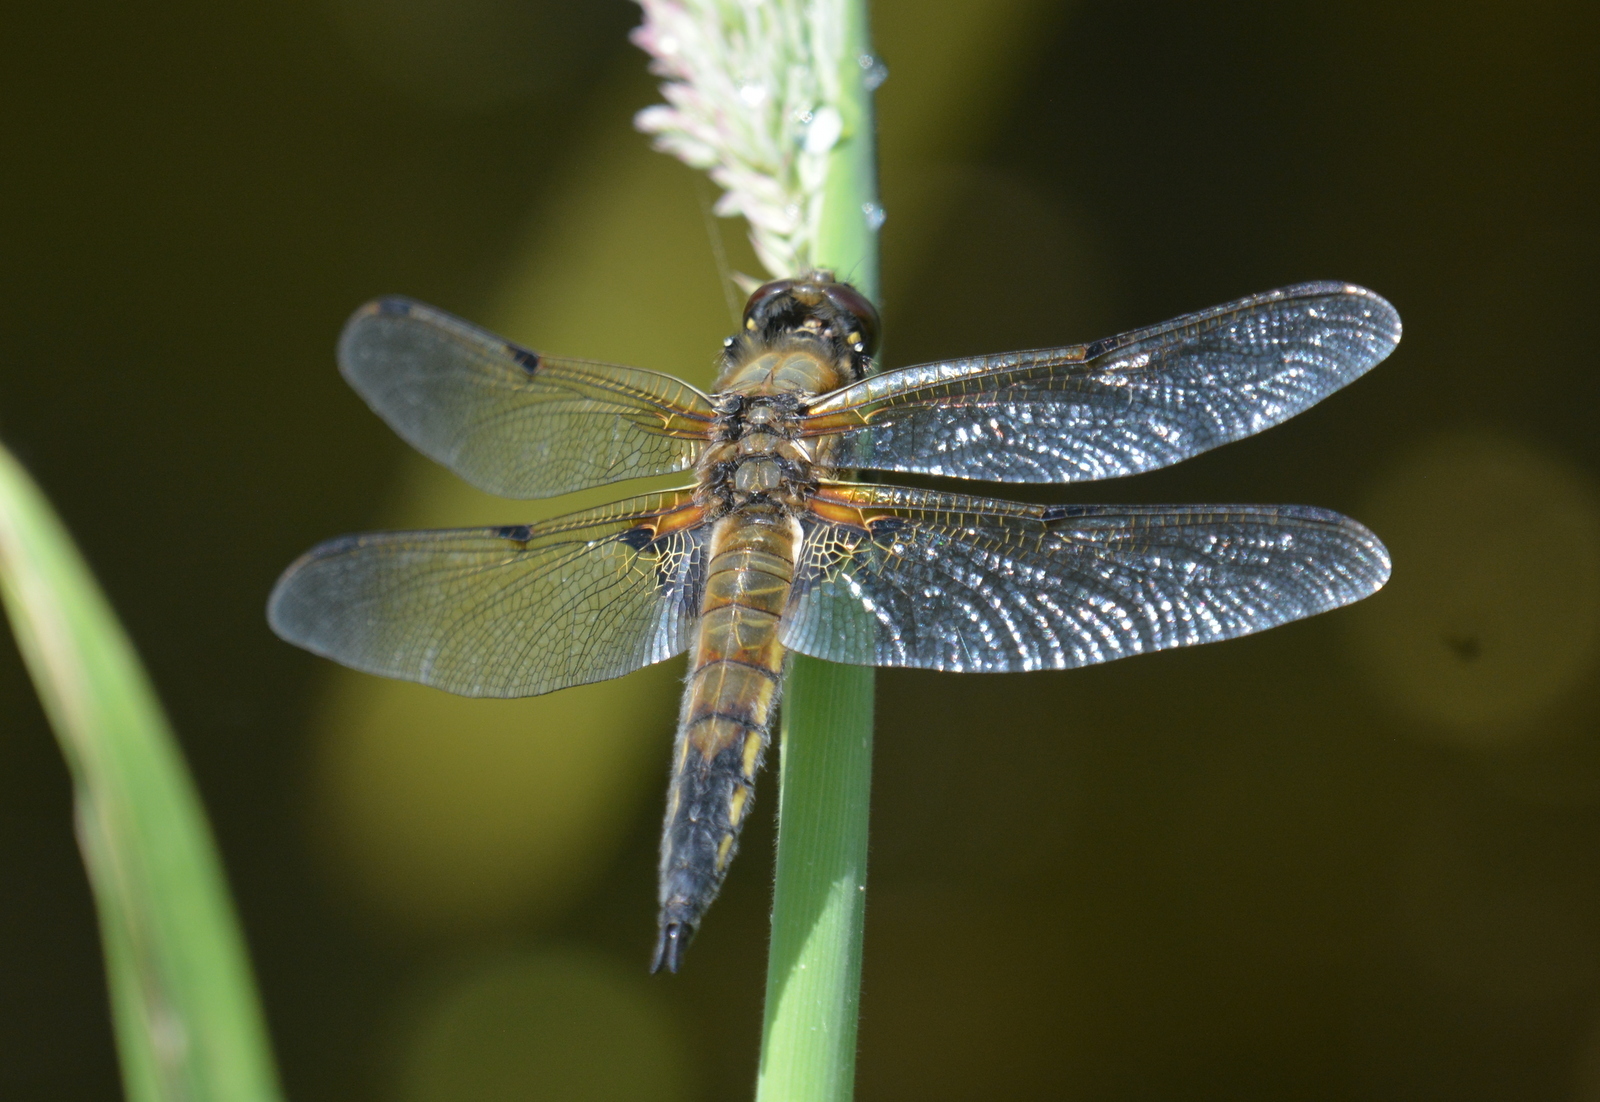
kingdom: Animalia
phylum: Arthropoda
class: Insecta
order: Odonata
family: Libellulidae
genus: Libellula
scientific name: Libellula quadrimaculata
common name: Four-spotted chaser
